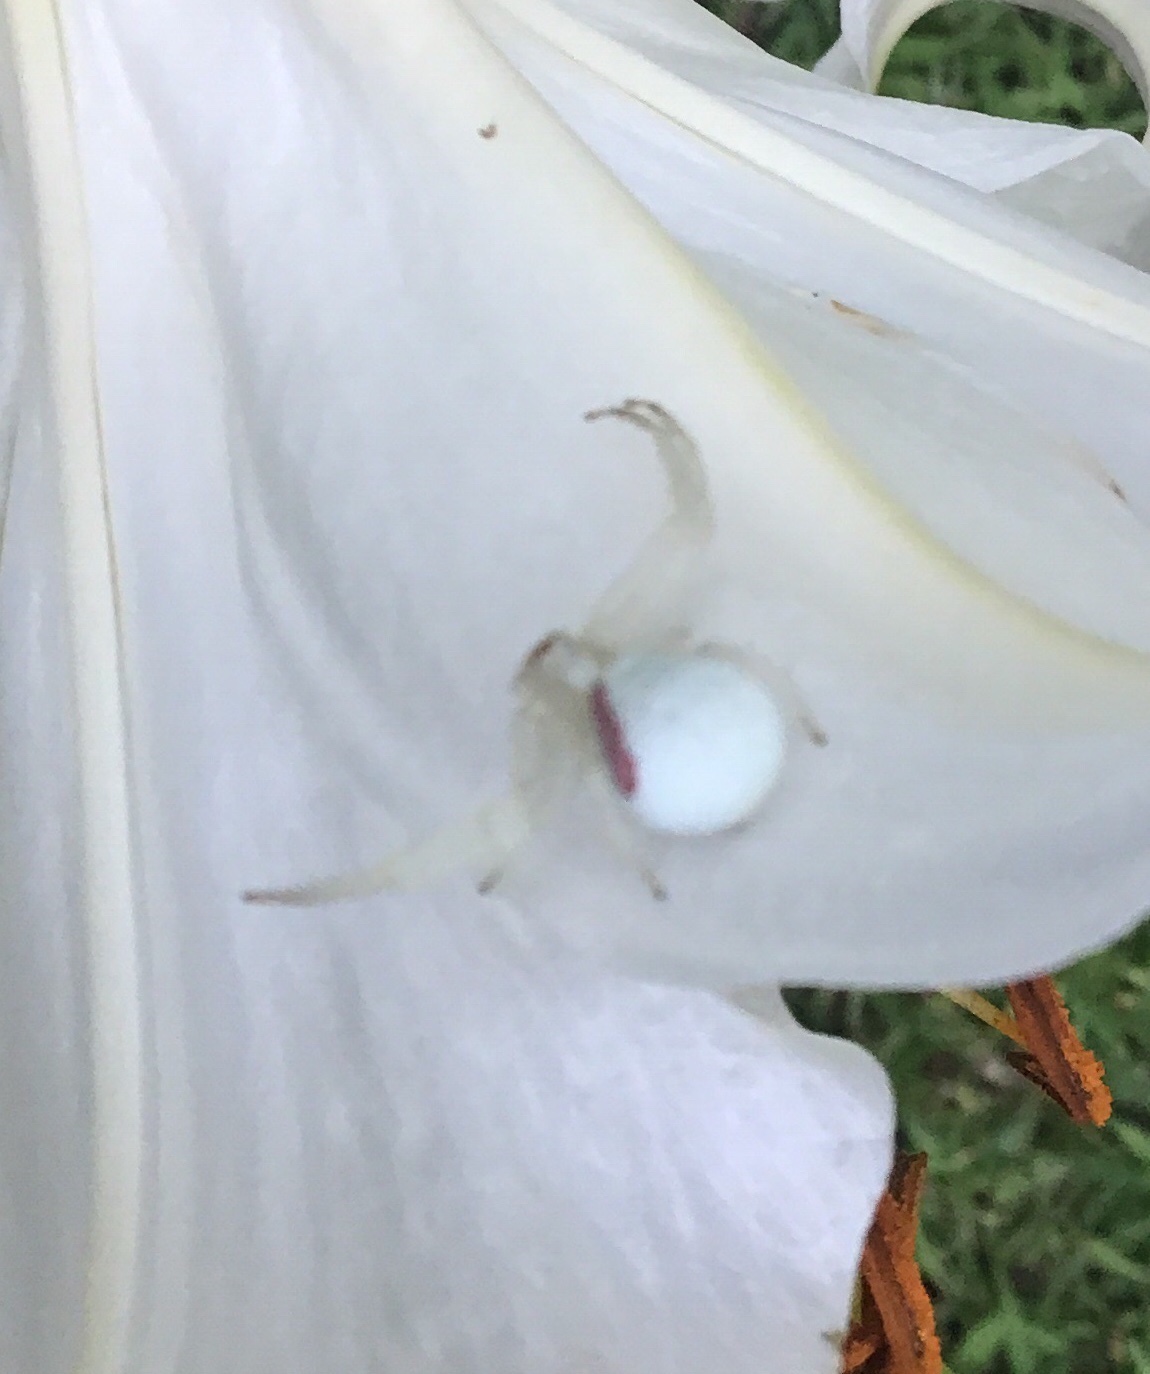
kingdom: Animalia
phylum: Arthropoda
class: Arachnida
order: Araneae
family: Thomisidae
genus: Misumena
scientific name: Misumena vatia
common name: Goldenrod crab spider
